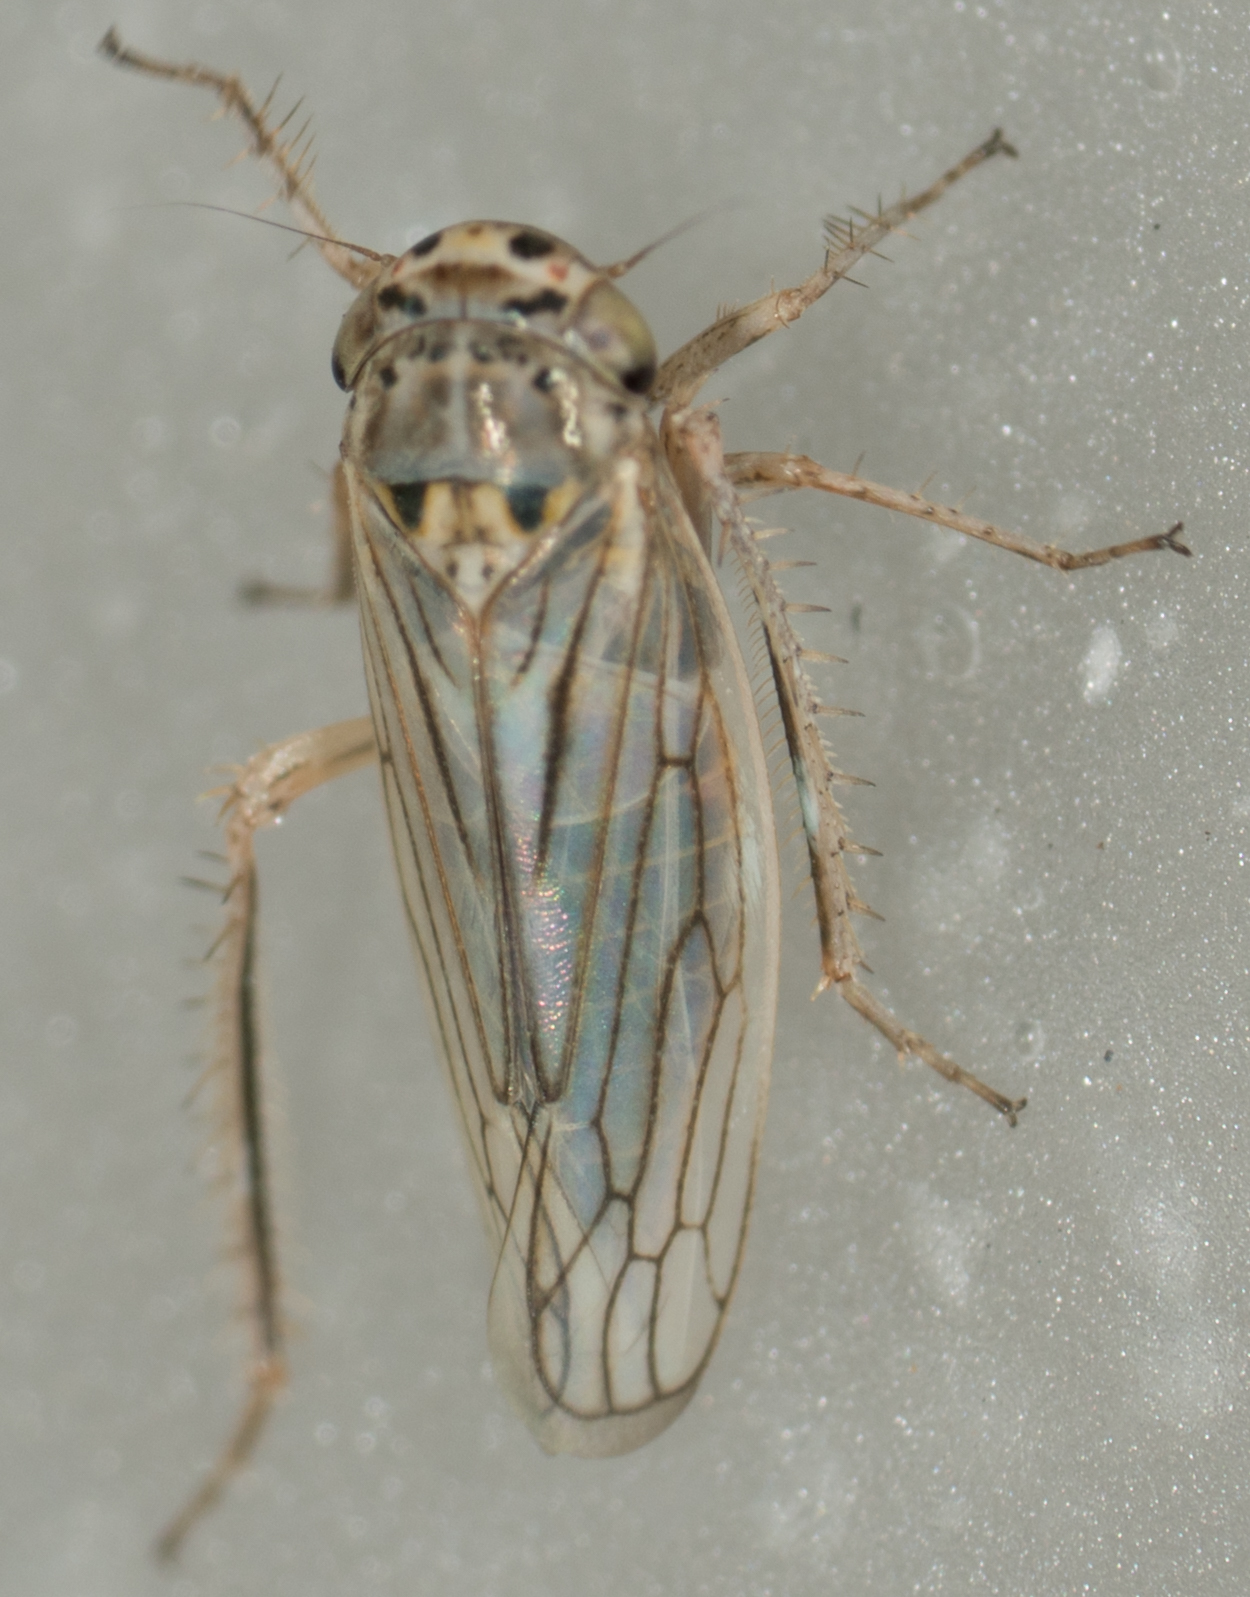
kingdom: Animalia
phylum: Arthropoda
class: Insecta
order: Hemiptera
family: Cicadellidae
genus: Exitianus
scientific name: Exitianus exitiosus
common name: Gray lawn leafhopper
